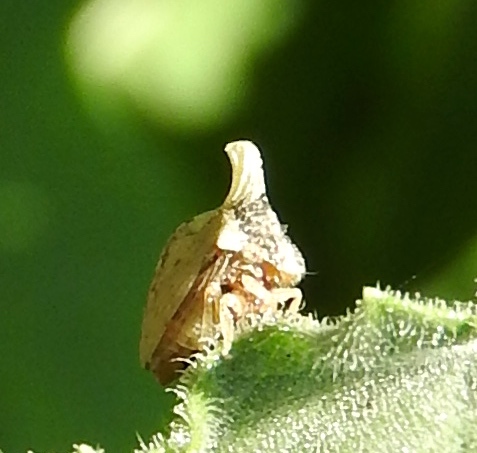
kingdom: Animalia
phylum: Arthropoda
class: Insecta
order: Hemiptera
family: Membracidae
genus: Publilia
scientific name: Publilia erecta
